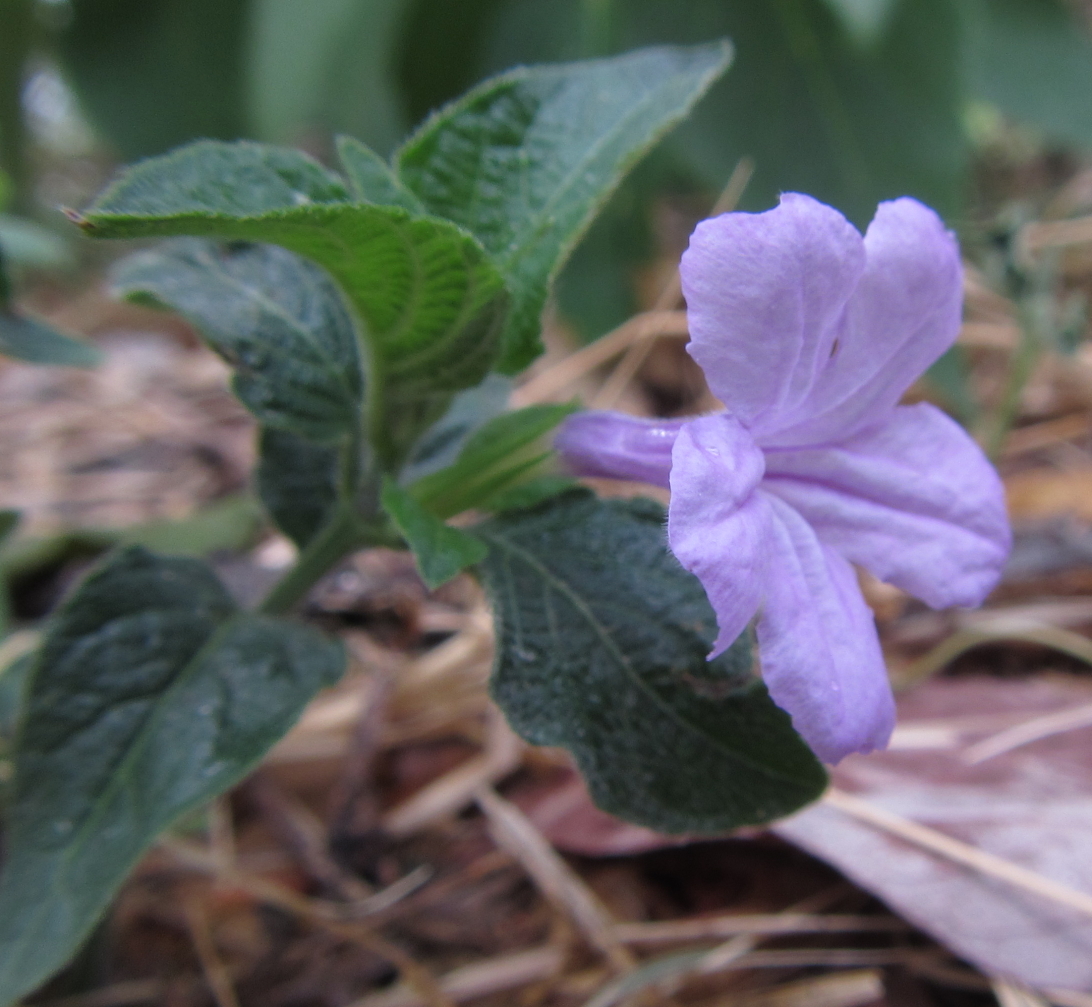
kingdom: Plantae
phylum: Tracheophyta
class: Magnoliopsida
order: Lamiales
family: Acanthaceae
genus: Ruellia
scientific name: Ruellia prostrata
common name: Prostrate wild petunia
